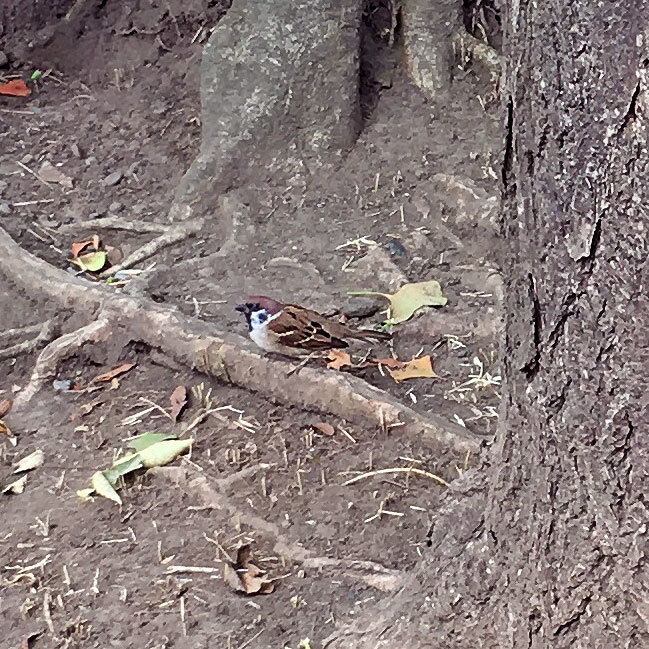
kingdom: Animalia
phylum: Chordata
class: Aves
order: Passeriformes
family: Passeridae
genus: Passer
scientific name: Passer montanus
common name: Eurasian tree sparrow
